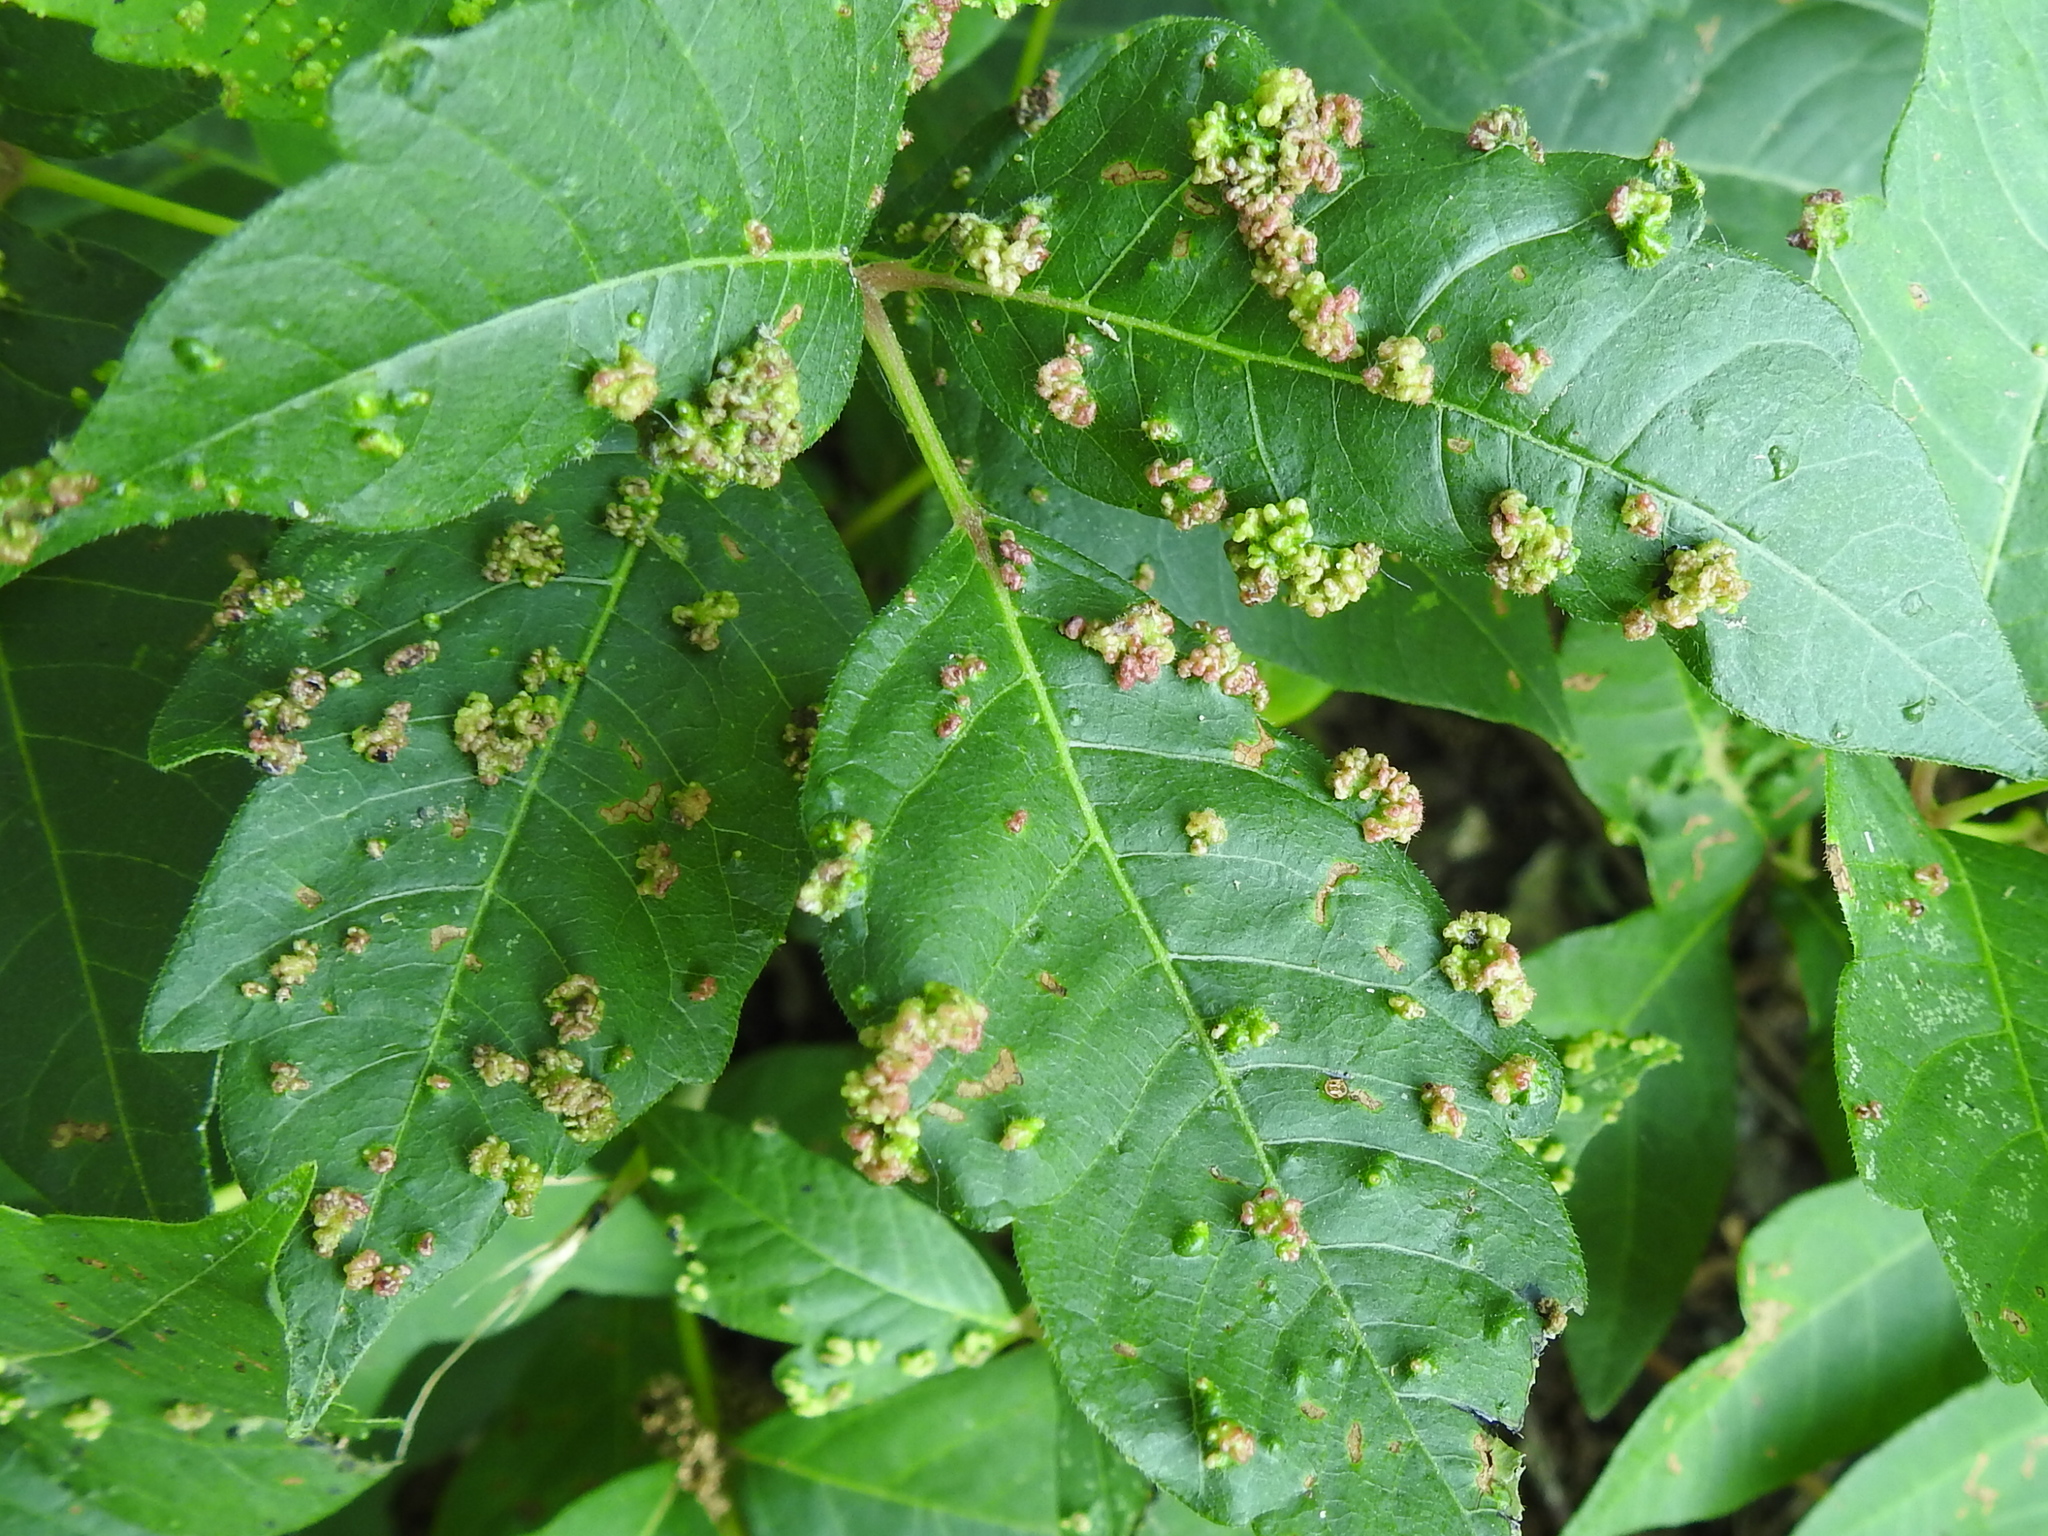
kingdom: Animalia
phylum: Arthropoda
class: Arachnida
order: Trombidiformes
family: Eriophyidae
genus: Aculops
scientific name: Aculops
